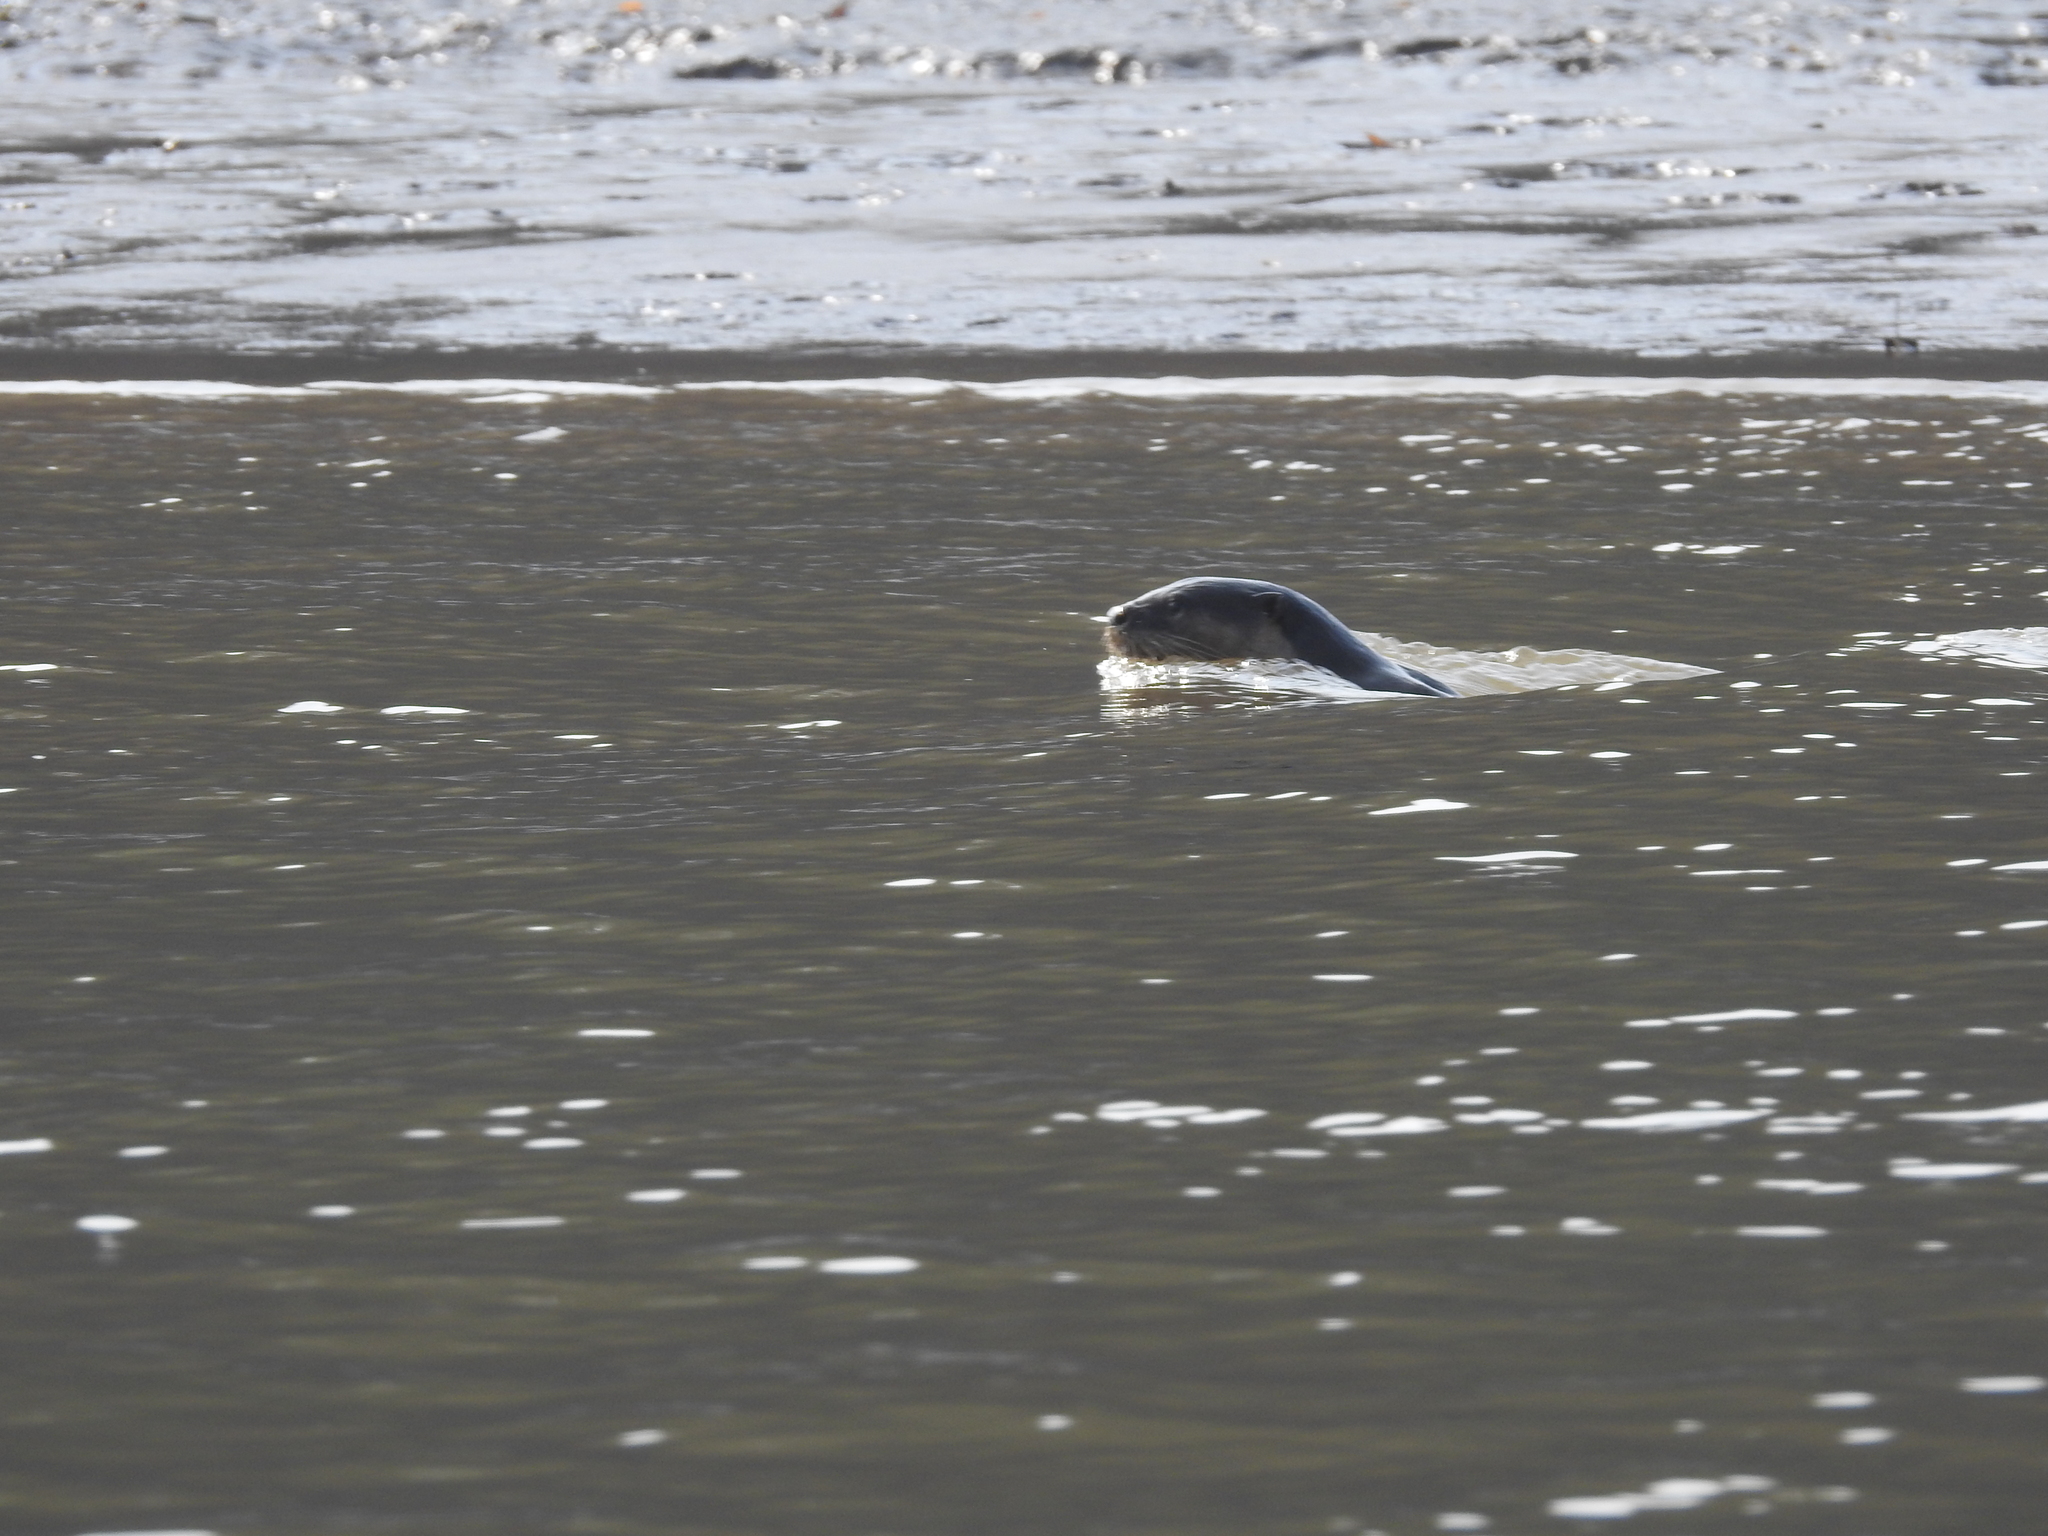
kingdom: Animalia
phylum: Chordata
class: Mammalia
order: Carnivora
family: Mustelidae
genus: Lutrogale
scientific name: Lutrogale perspicillata
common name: Smooth-coated otter
